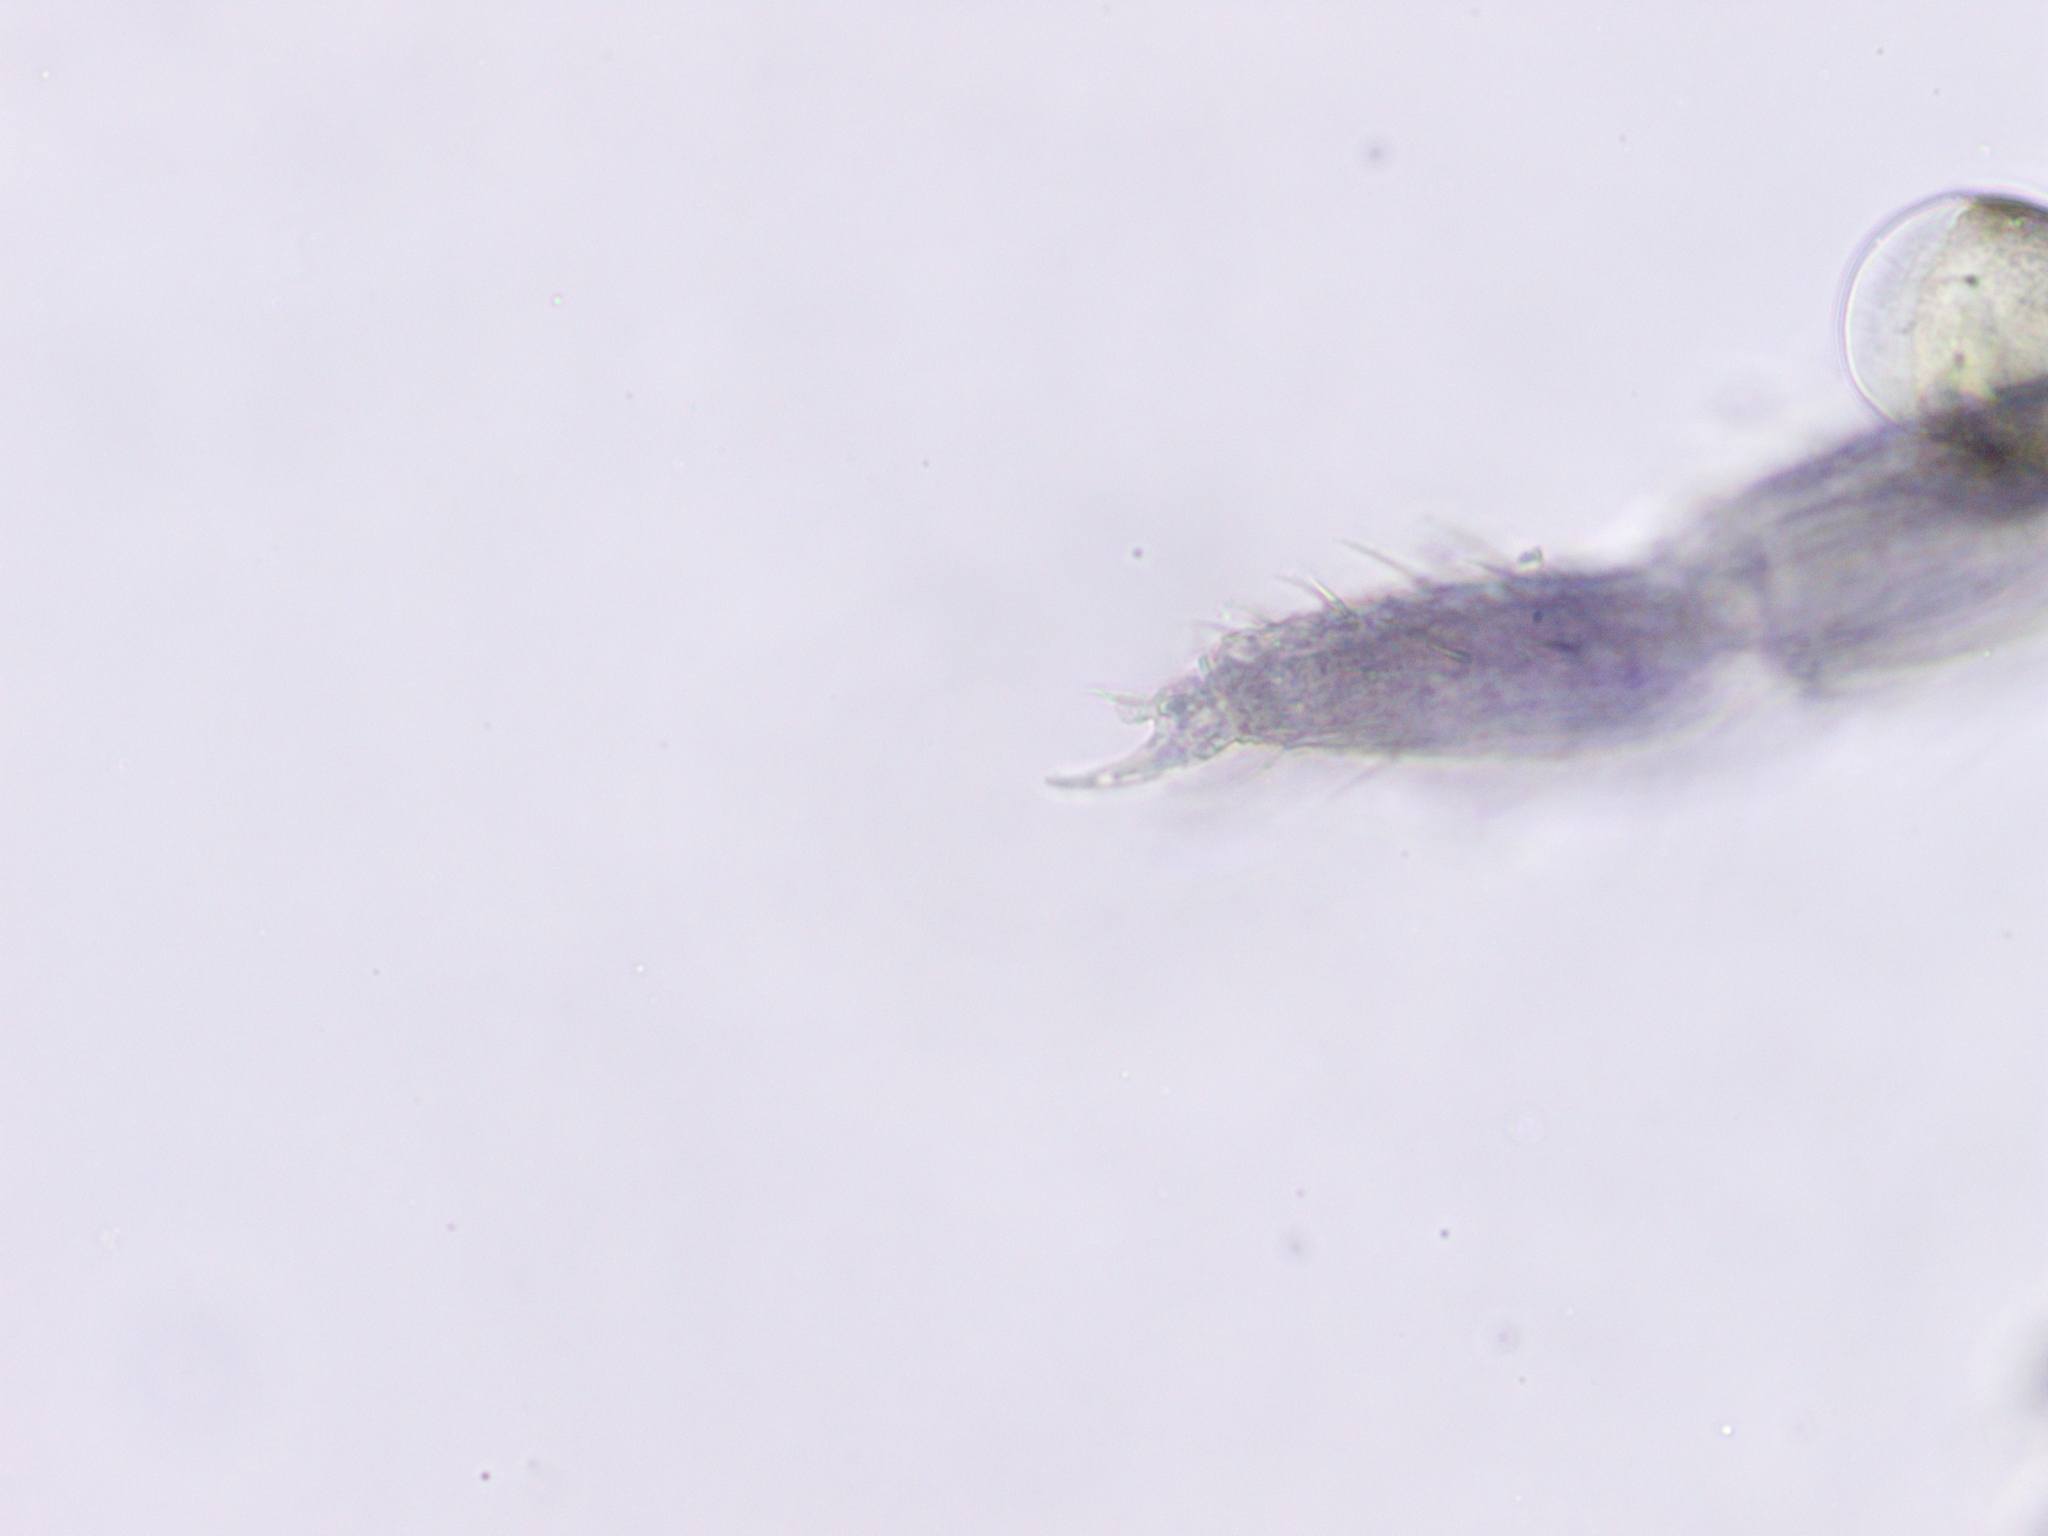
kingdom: Animalia
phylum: Arthropoda
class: Collembola
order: Entomobryomorpha
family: Isotomidae
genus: Isotomurus
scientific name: Isotomurus retardatus
